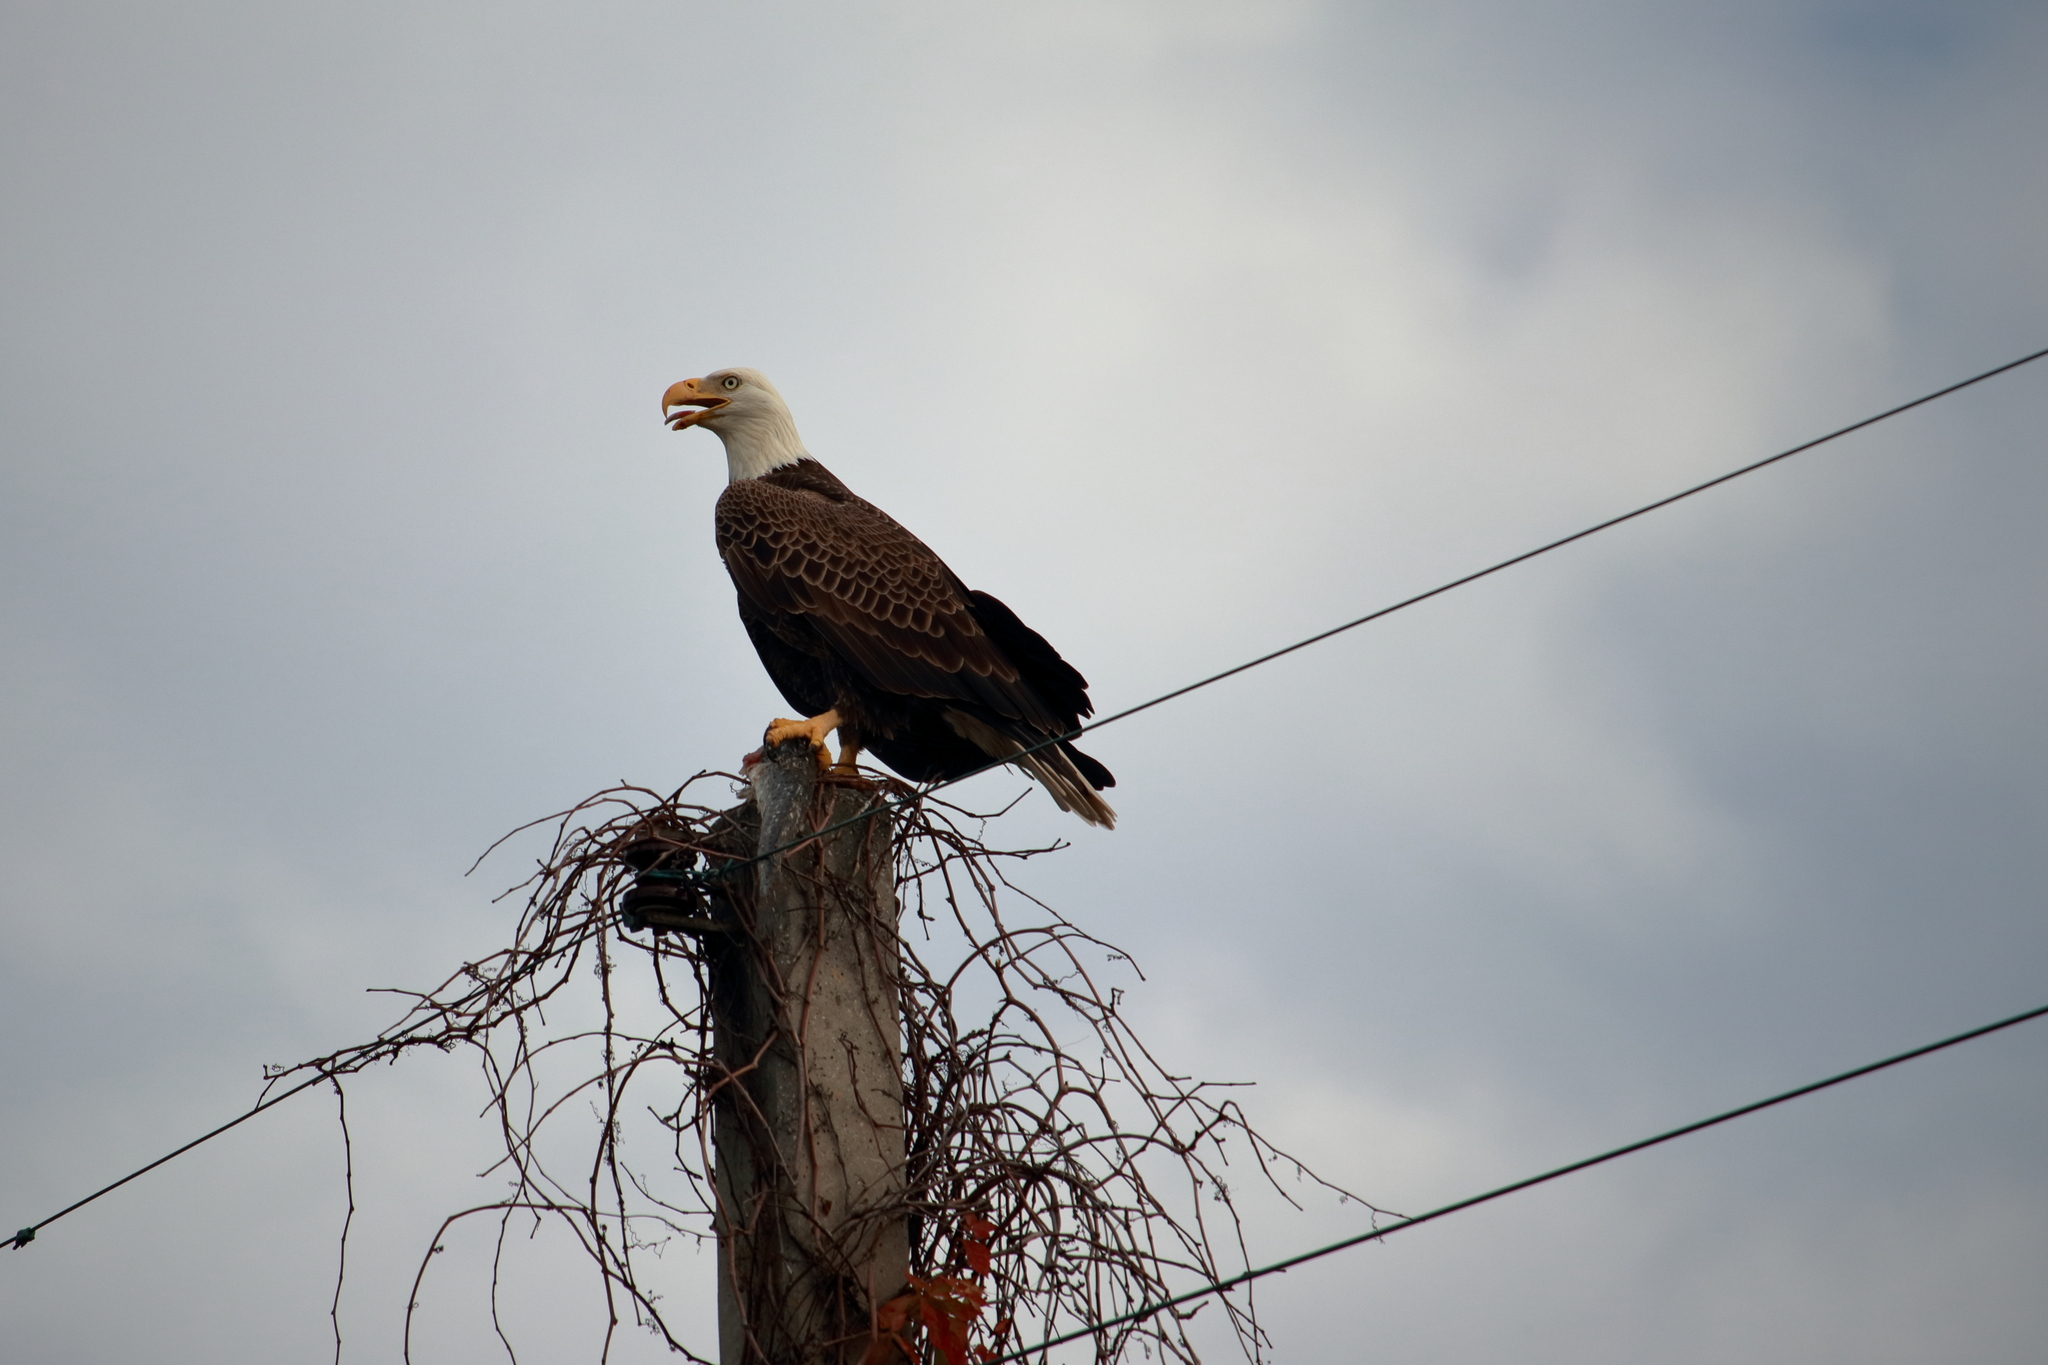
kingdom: Animalia
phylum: Chordata
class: Aves
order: Accipitriformes
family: Accipitridae
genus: Haliaeetus
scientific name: Haliaeetus leucocephalus
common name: Bald eagle
